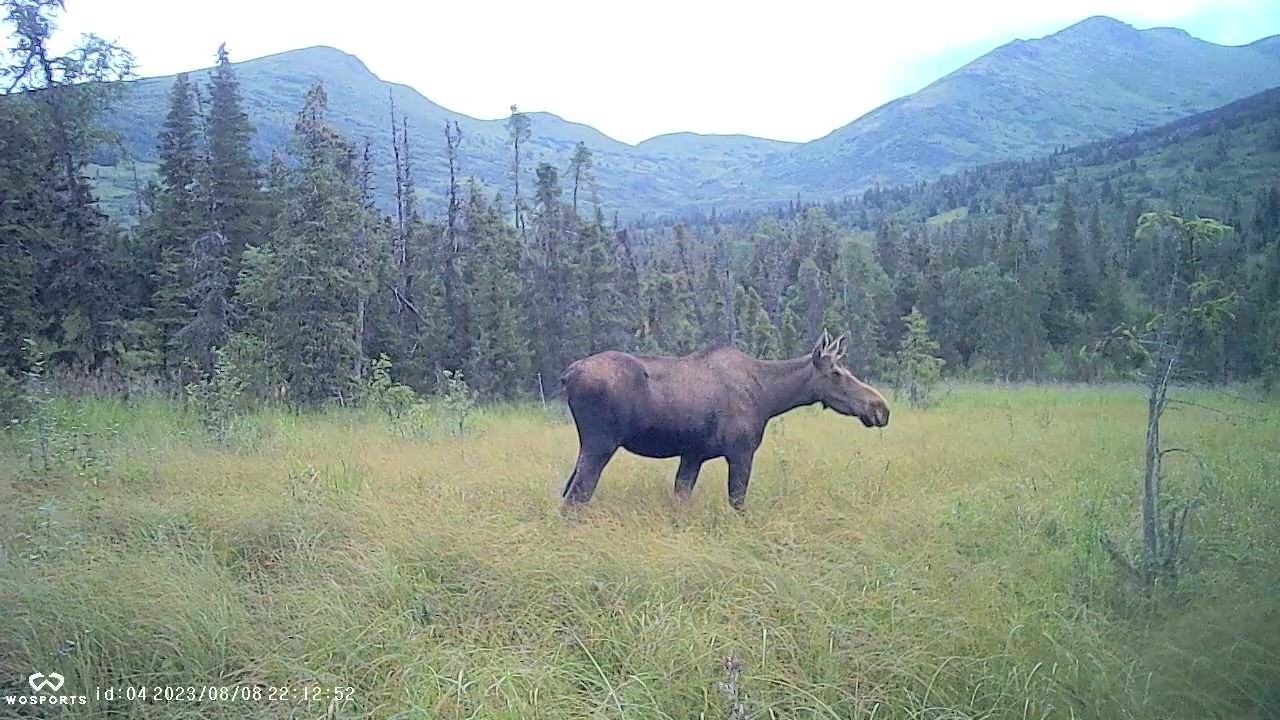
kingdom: Animalia
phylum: Chordata
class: Mammalia
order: Artiodactyla
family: Cervidae
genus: Alces
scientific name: Alces alces
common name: Moose
